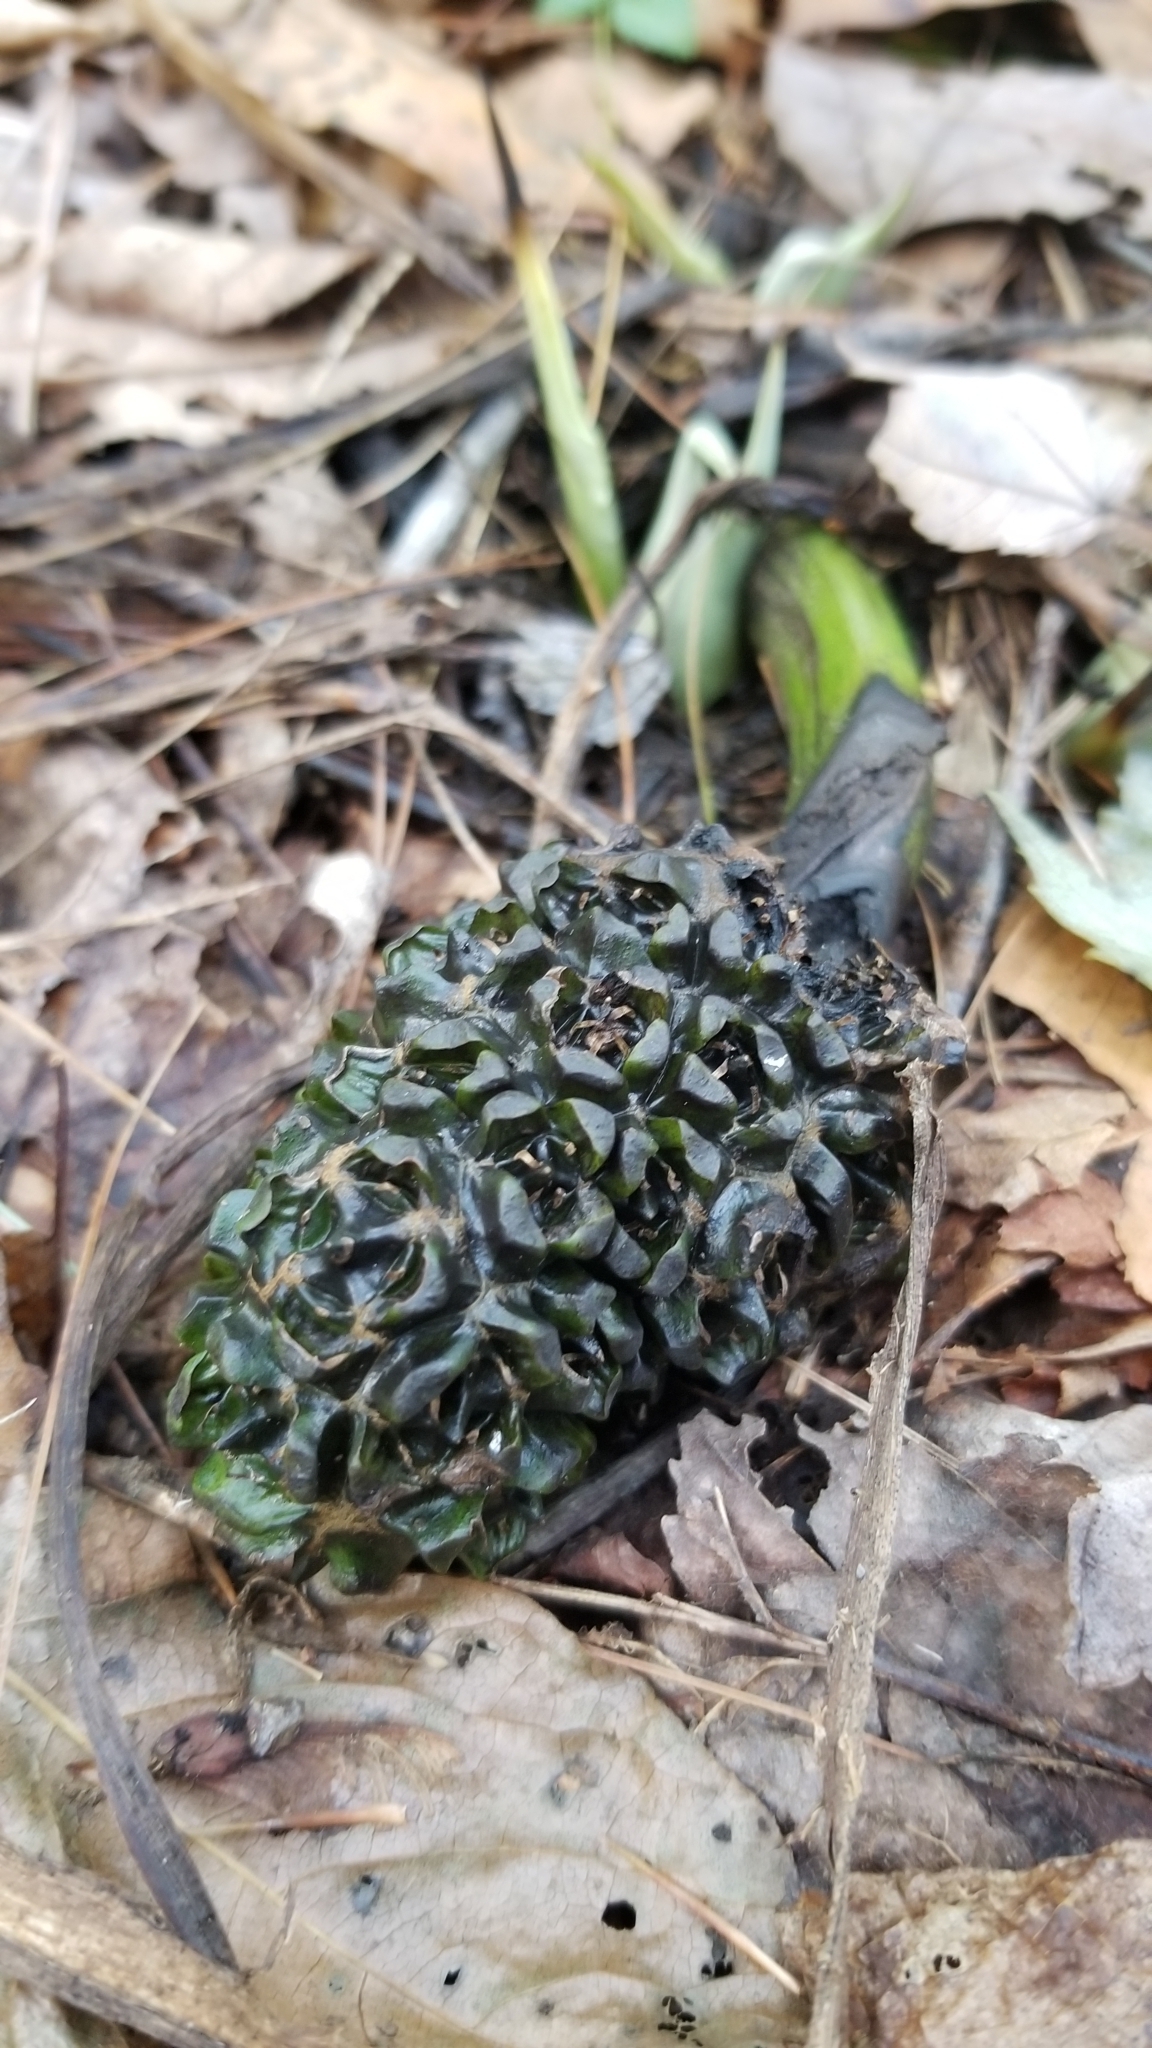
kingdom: Plantae
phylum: Tracheophyta
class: Liliopsida
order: Alismatales
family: Araceae
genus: Symplocarpus
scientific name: Symplocarpus foetidus
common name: Eastern skunk cabbage
